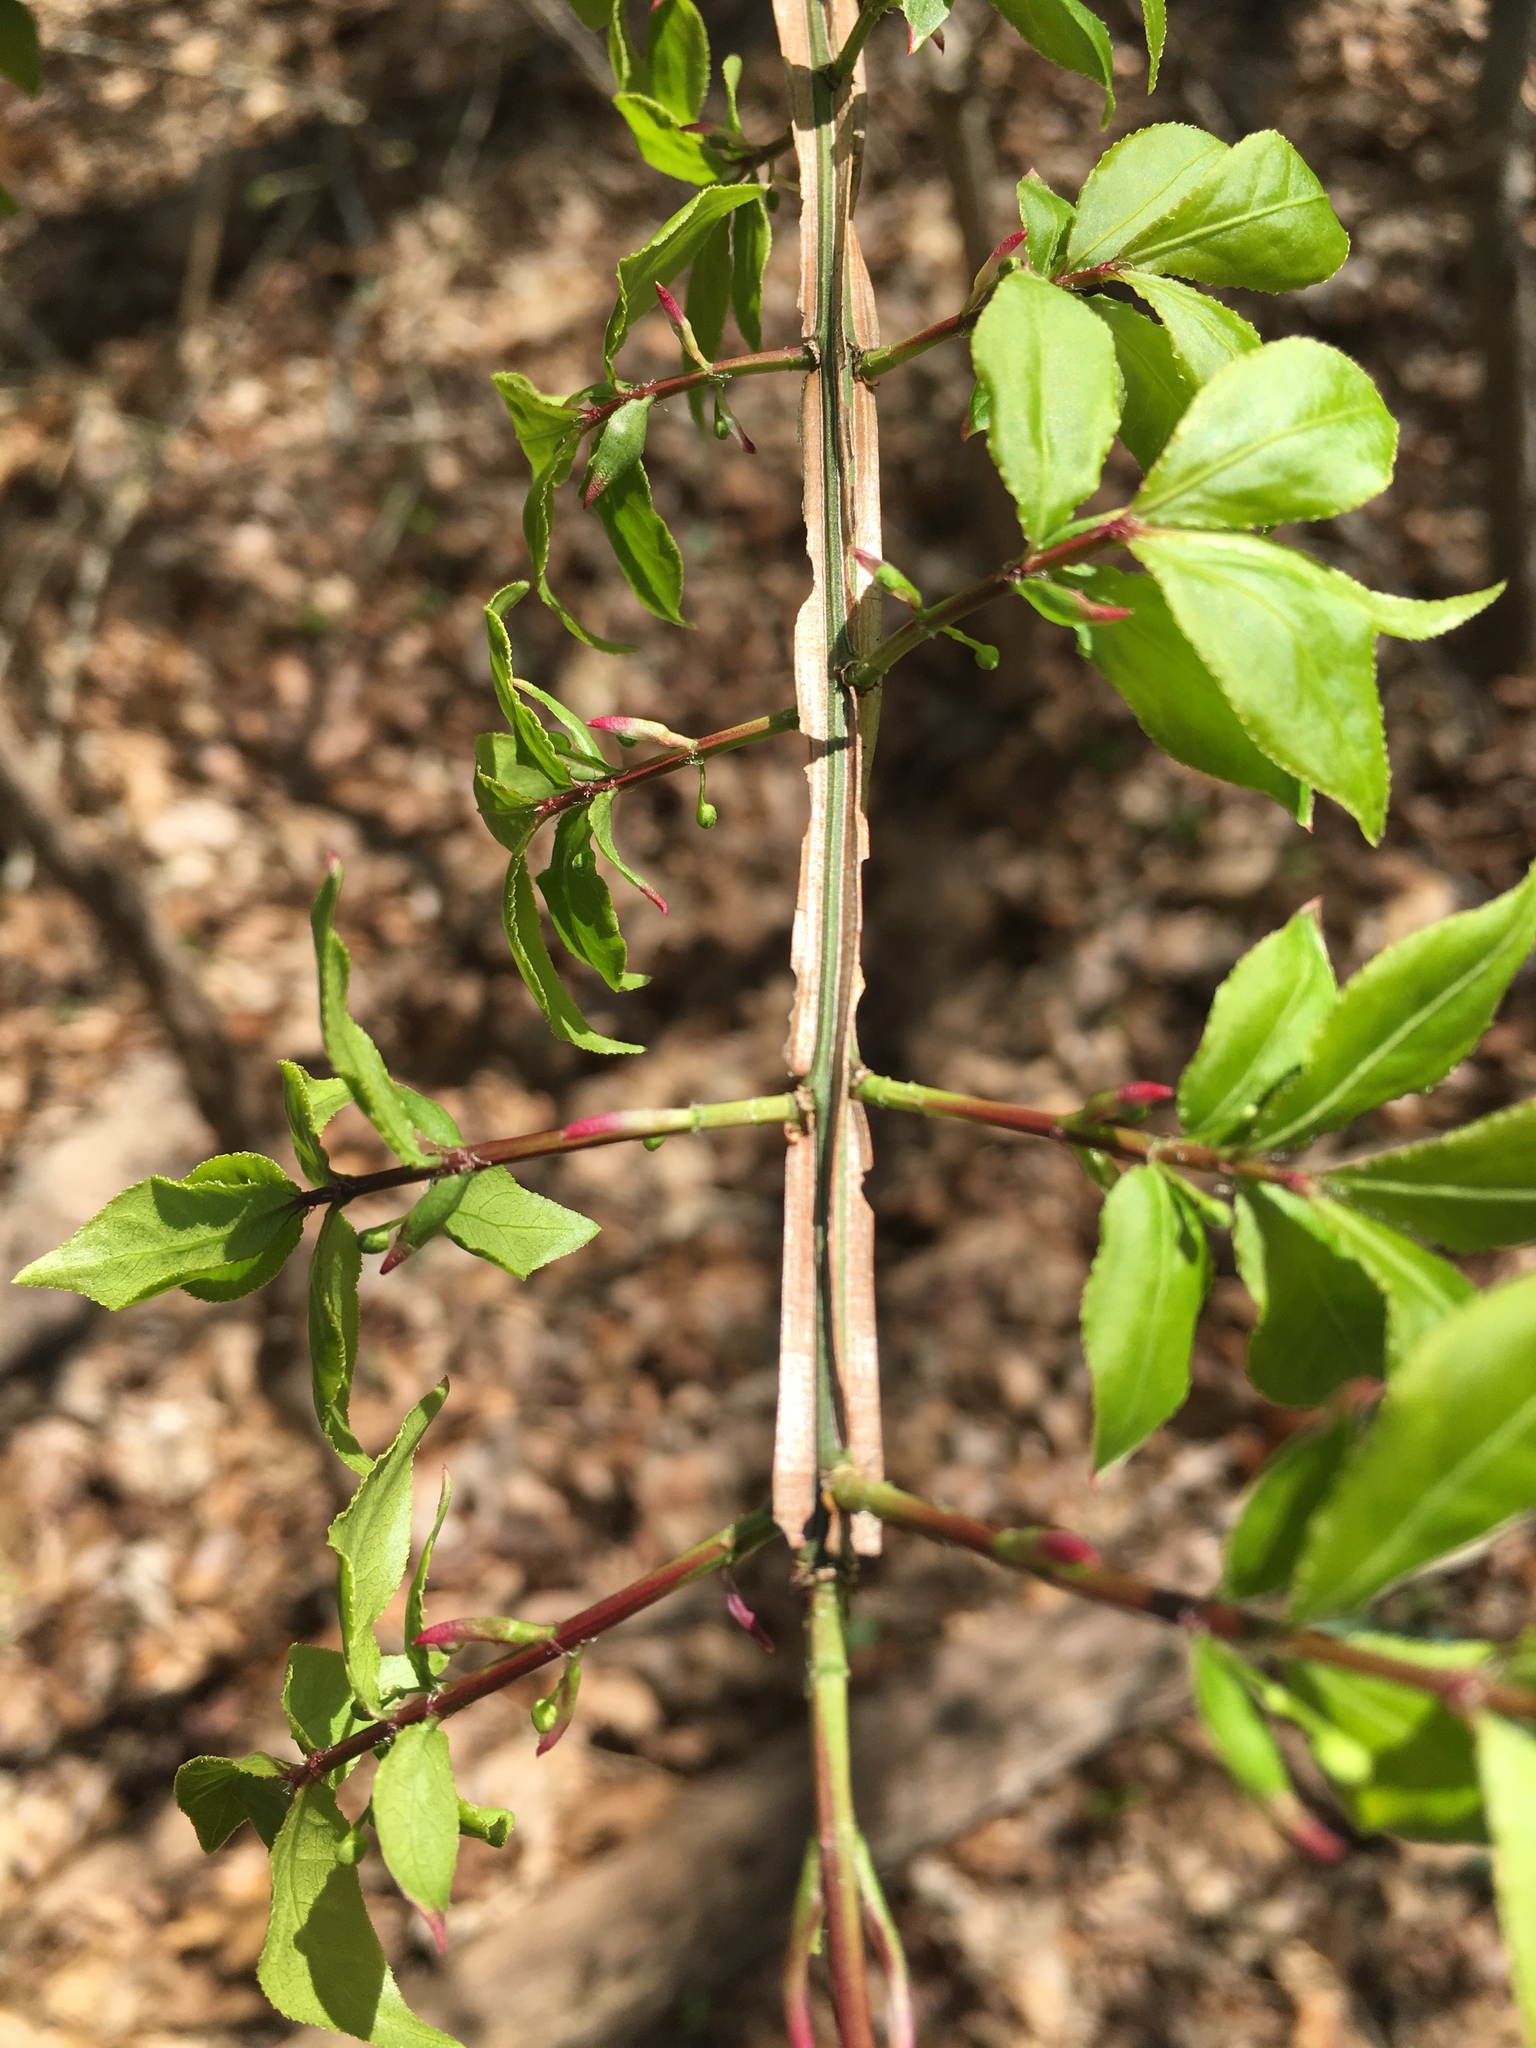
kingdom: Plantae
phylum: Tracheophyta
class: Magnoliopsida
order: Celastrales
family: Celastraceae
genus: Euonymus
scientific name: Euonymus alatus
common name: Winged euonymus
